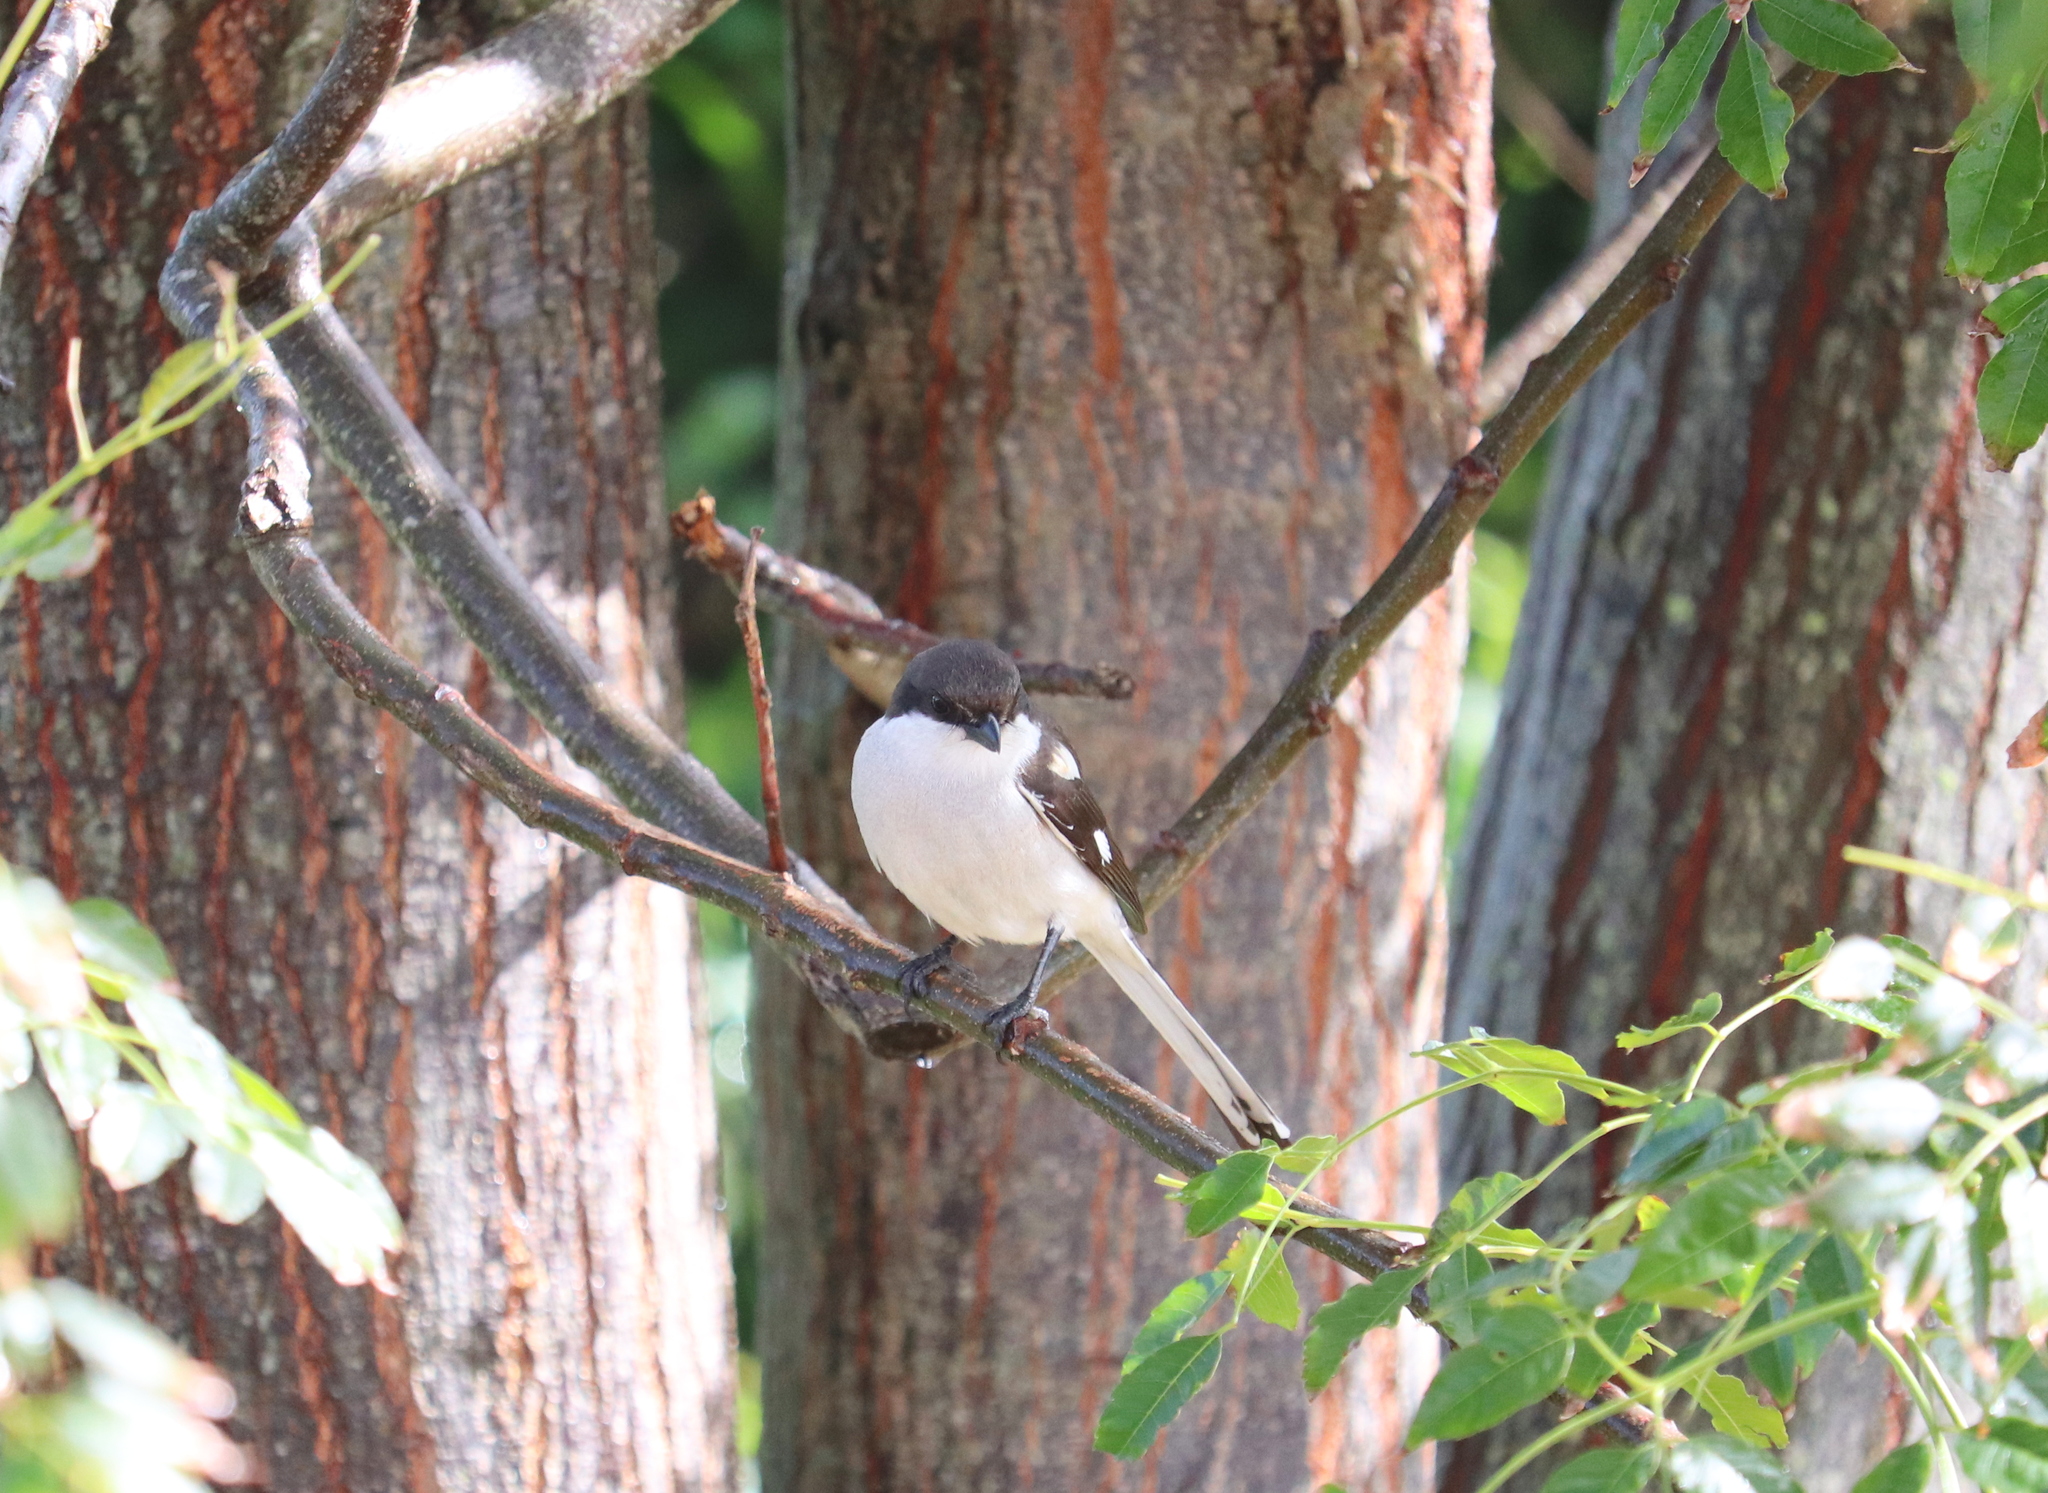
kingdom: Animalia
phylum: Chordata
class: Aves
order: Passeriformes
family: Laniidae
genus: Lanius
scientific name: Lanius collaris
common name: Southern fiscal
